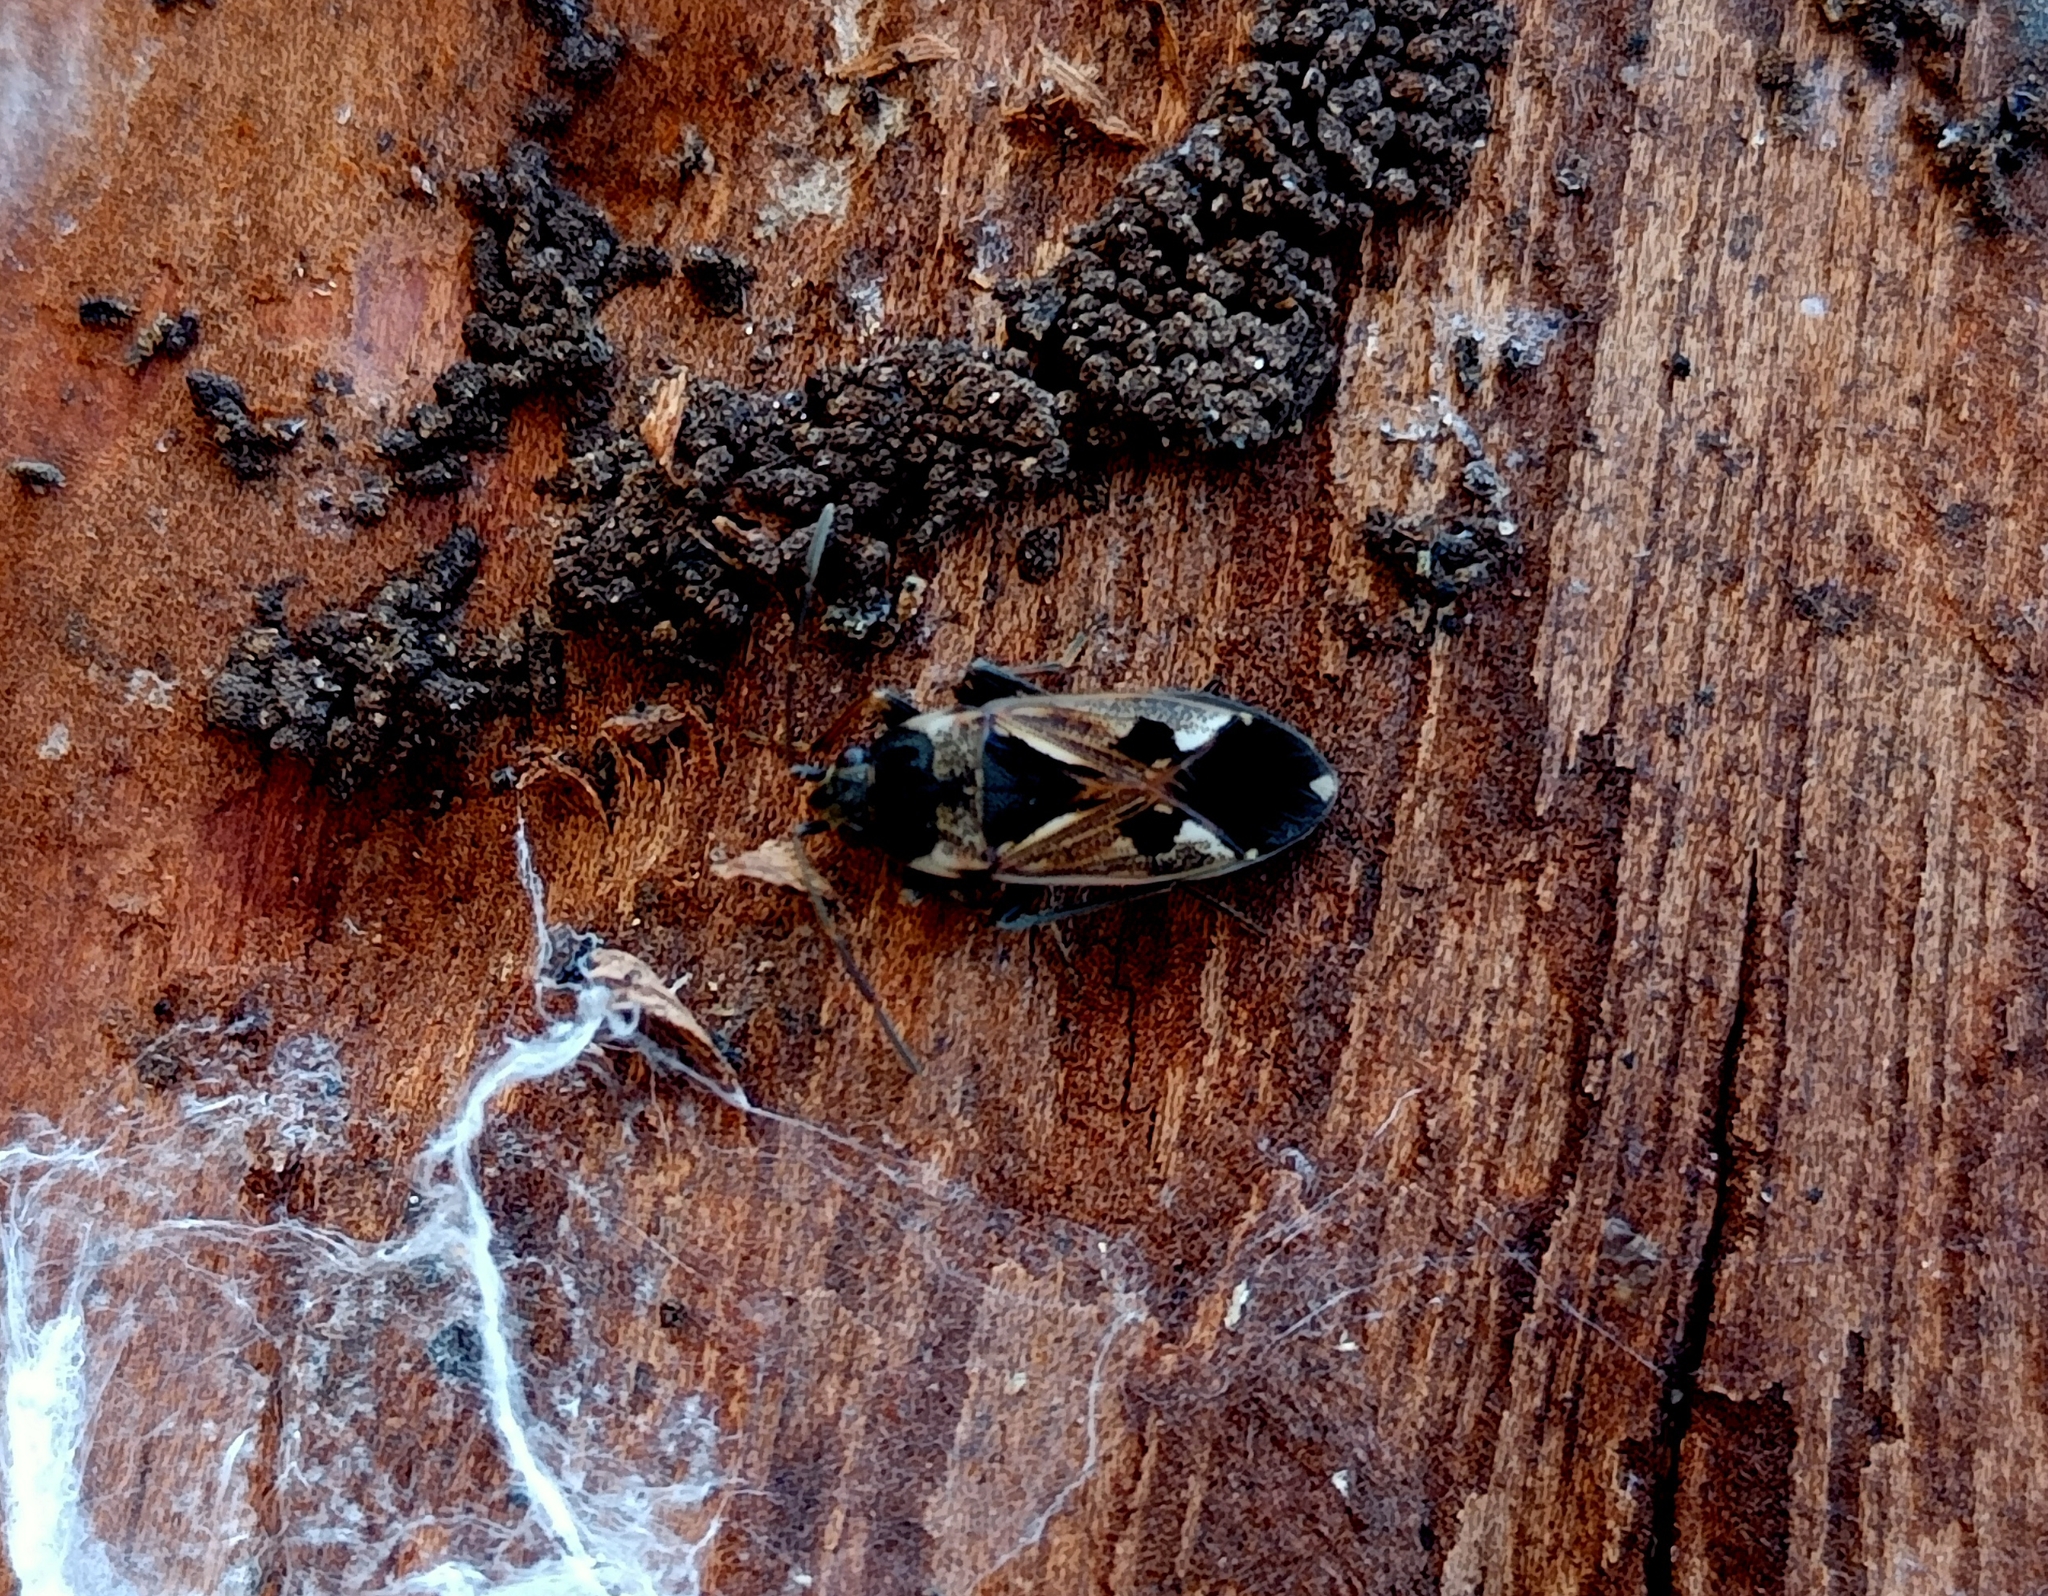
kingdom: Animalia
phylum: Arthropoda
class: Insecta
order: Hemiptera
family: Rhyparochromidae
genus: Rhyparochromus
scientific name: Rhyparochromus vulgaris
